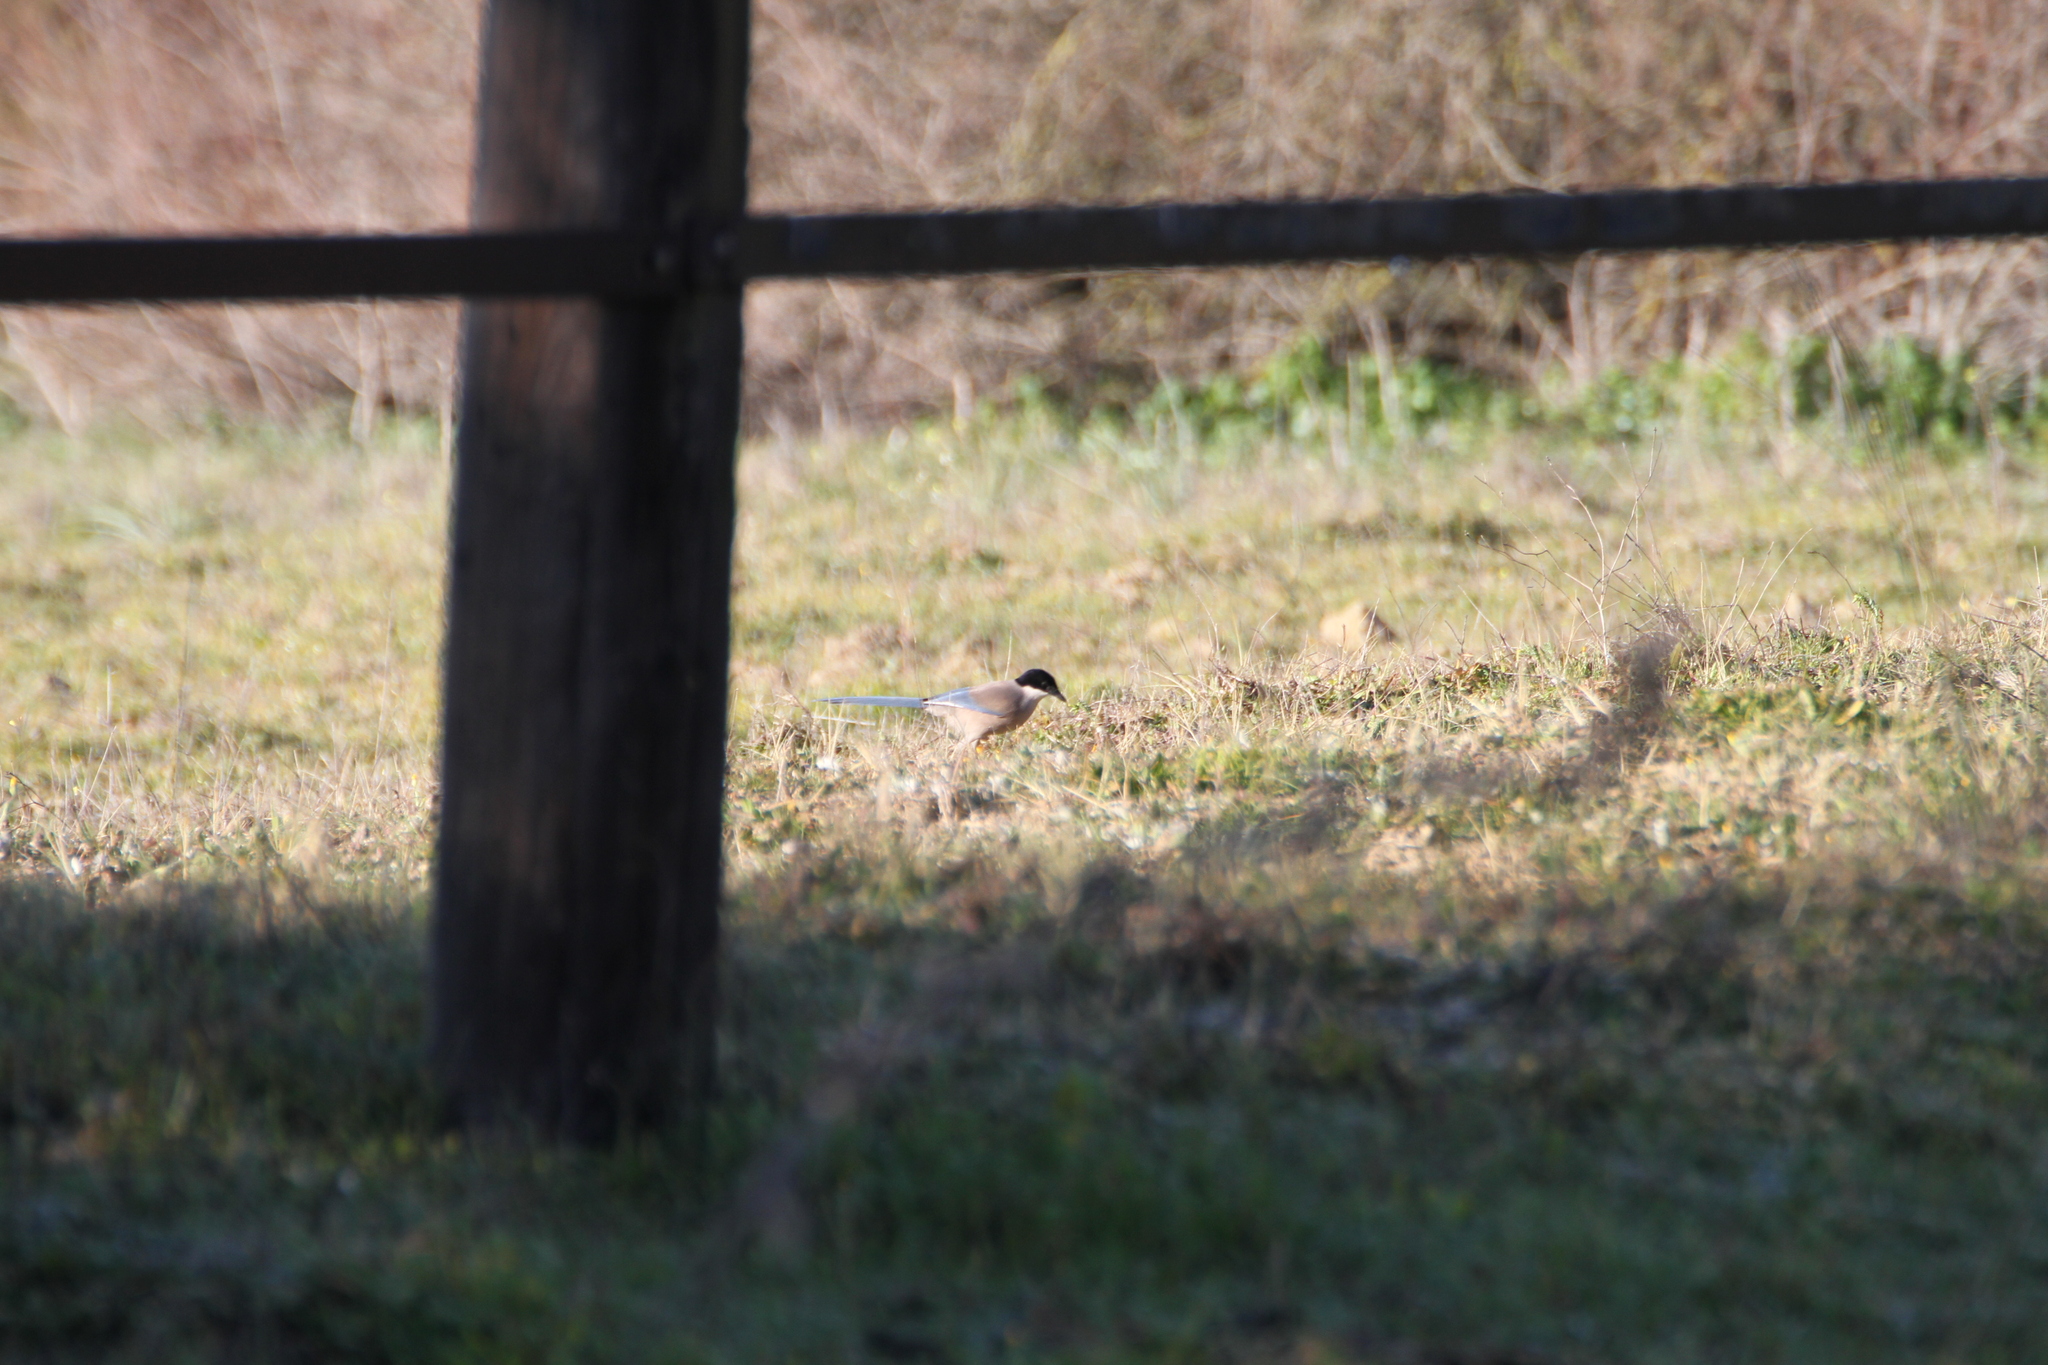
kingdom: Animalia
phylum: Chordata
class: Aves
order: Passeriformes
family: Corvidae
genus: Cyanopica
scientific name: Cyanopica cooki
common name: Iberian magpie
